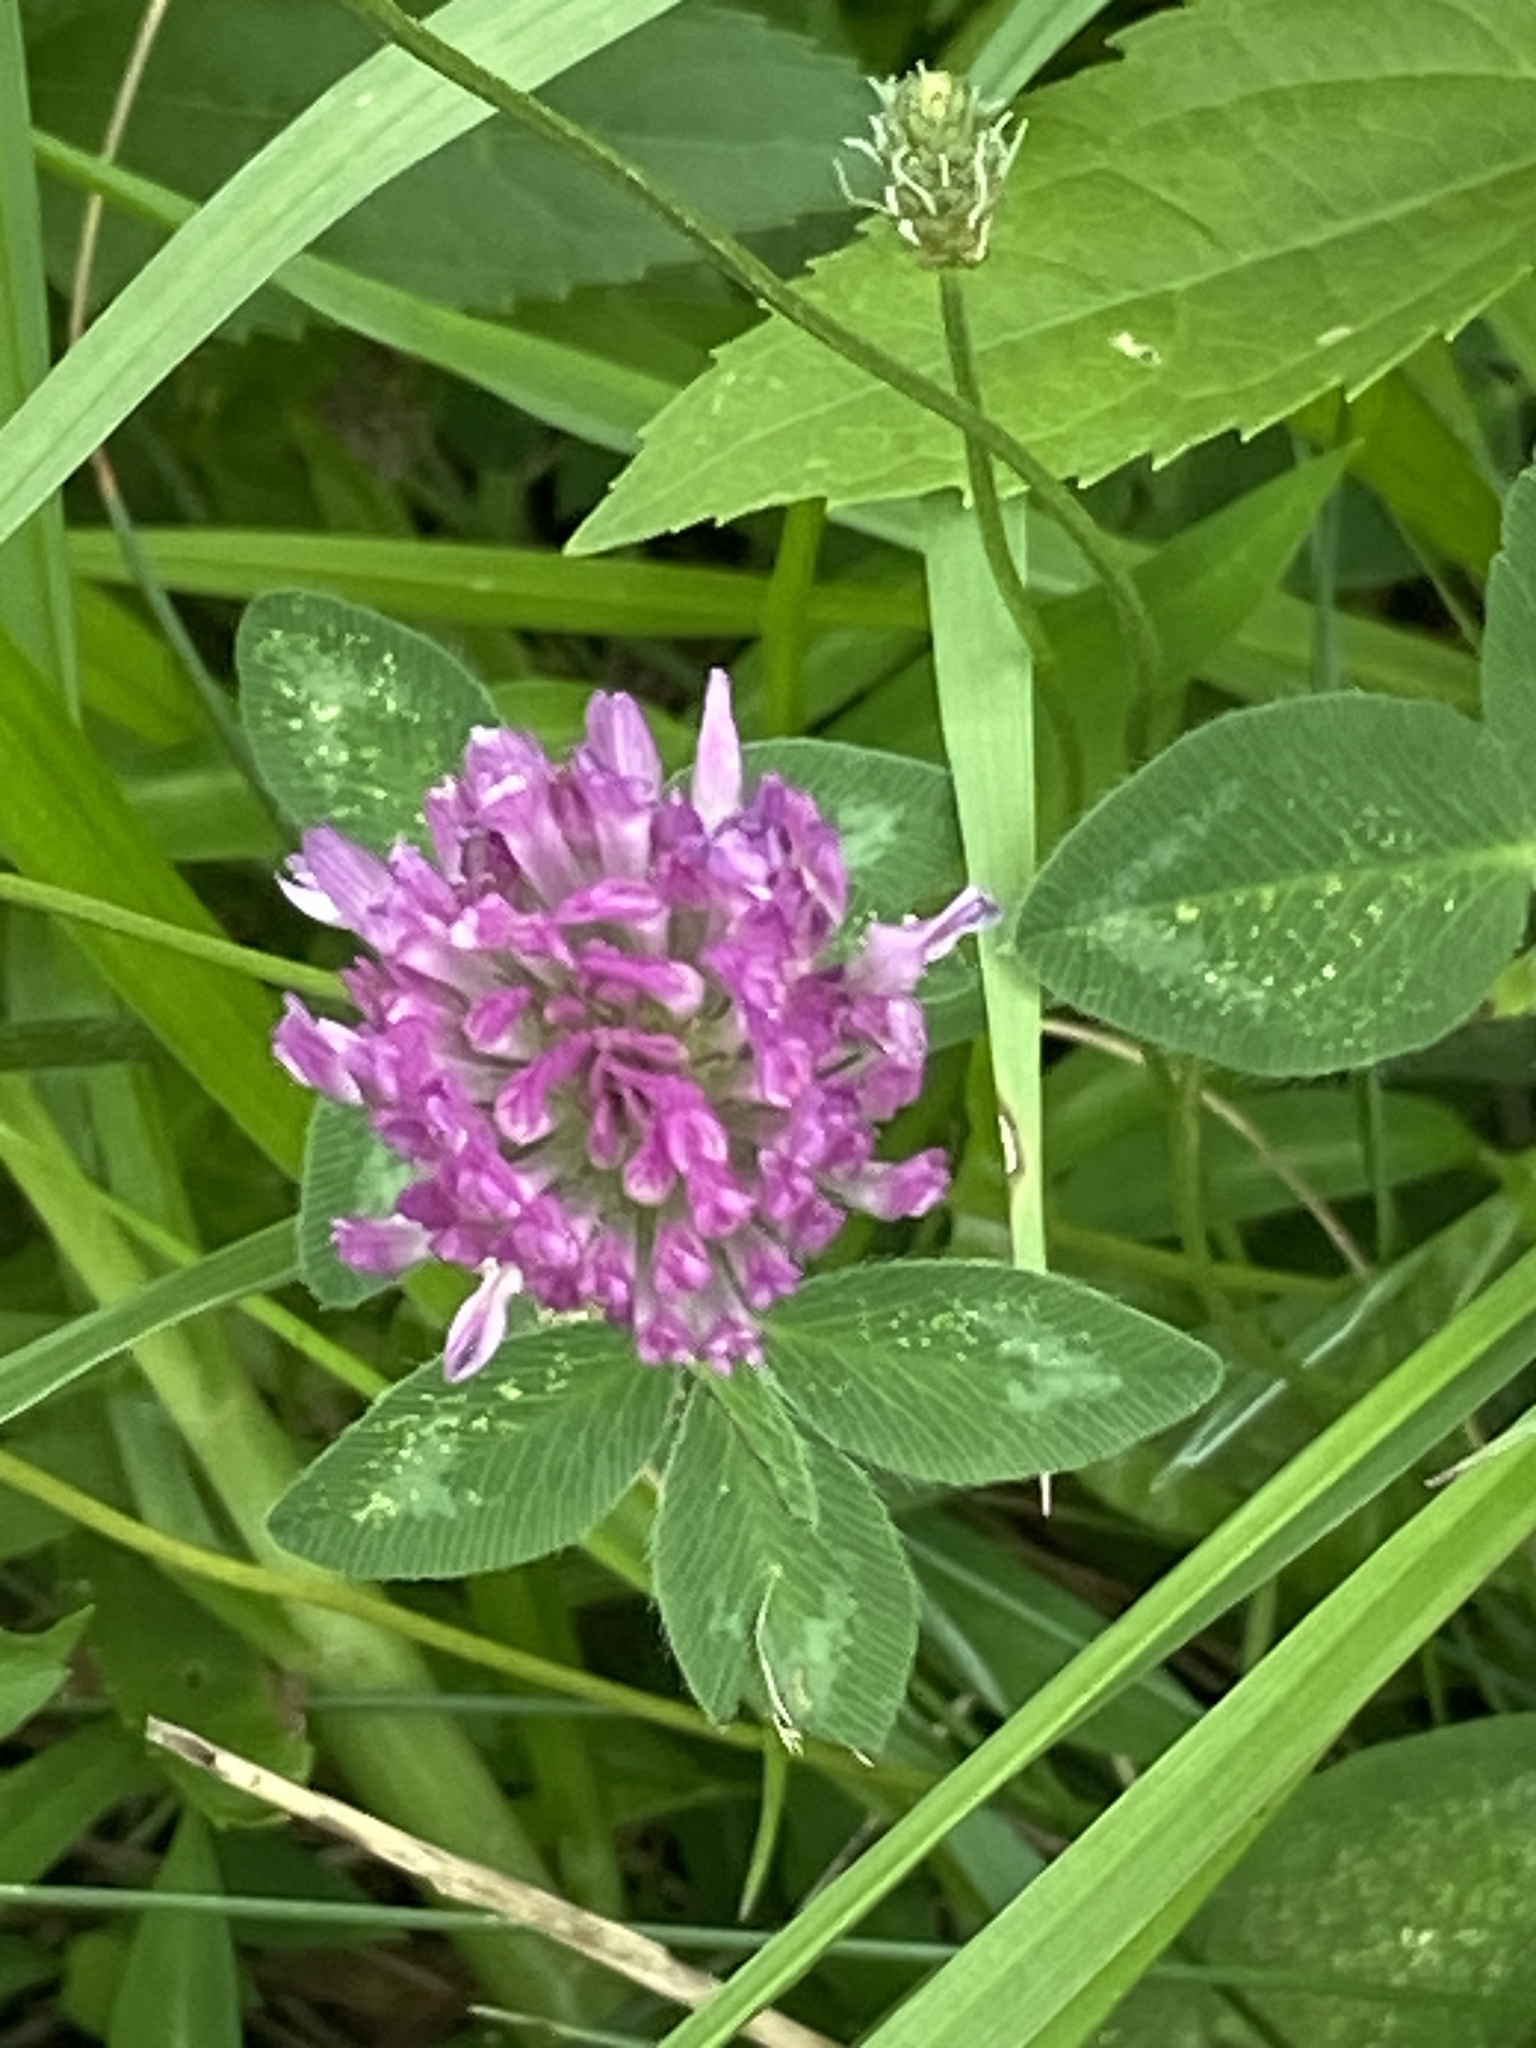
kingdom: Plantae
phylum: Tracheophyta
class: Magnoliopsida
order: Fabales
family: Fabaceae
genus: Trifolium
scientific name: Trifolium pratense
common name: Red clover
